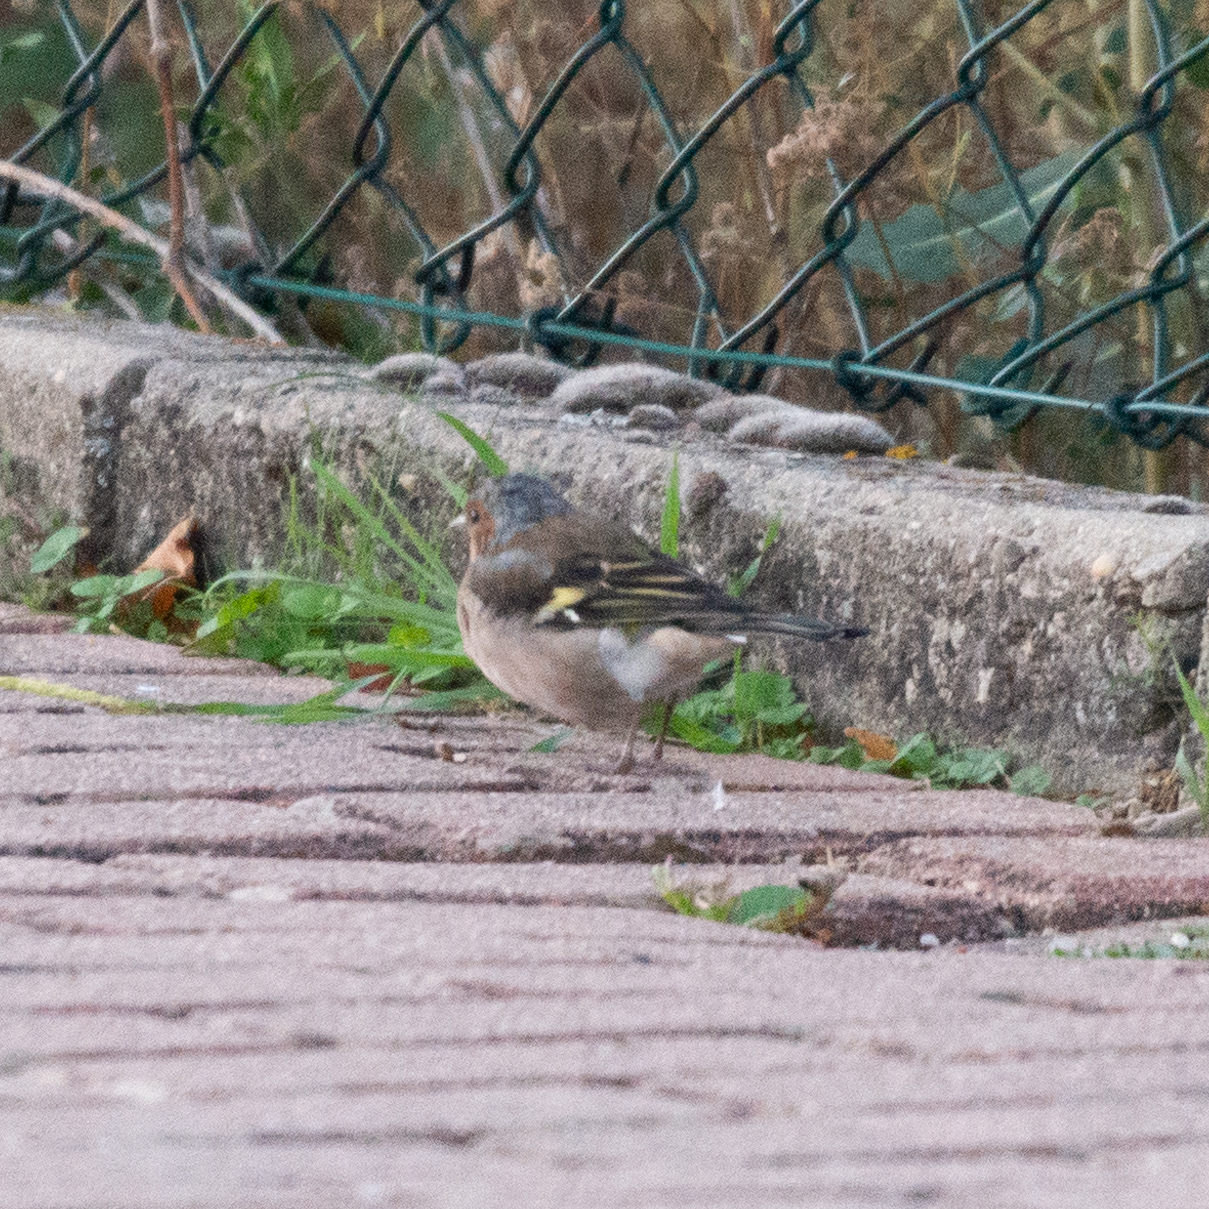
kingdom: Animalia
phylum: Chordata
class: Aves
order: Passeriformes
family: Fringillidae
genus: Fringilla
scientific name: Fringilla coelebs
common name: Common chaffinch
